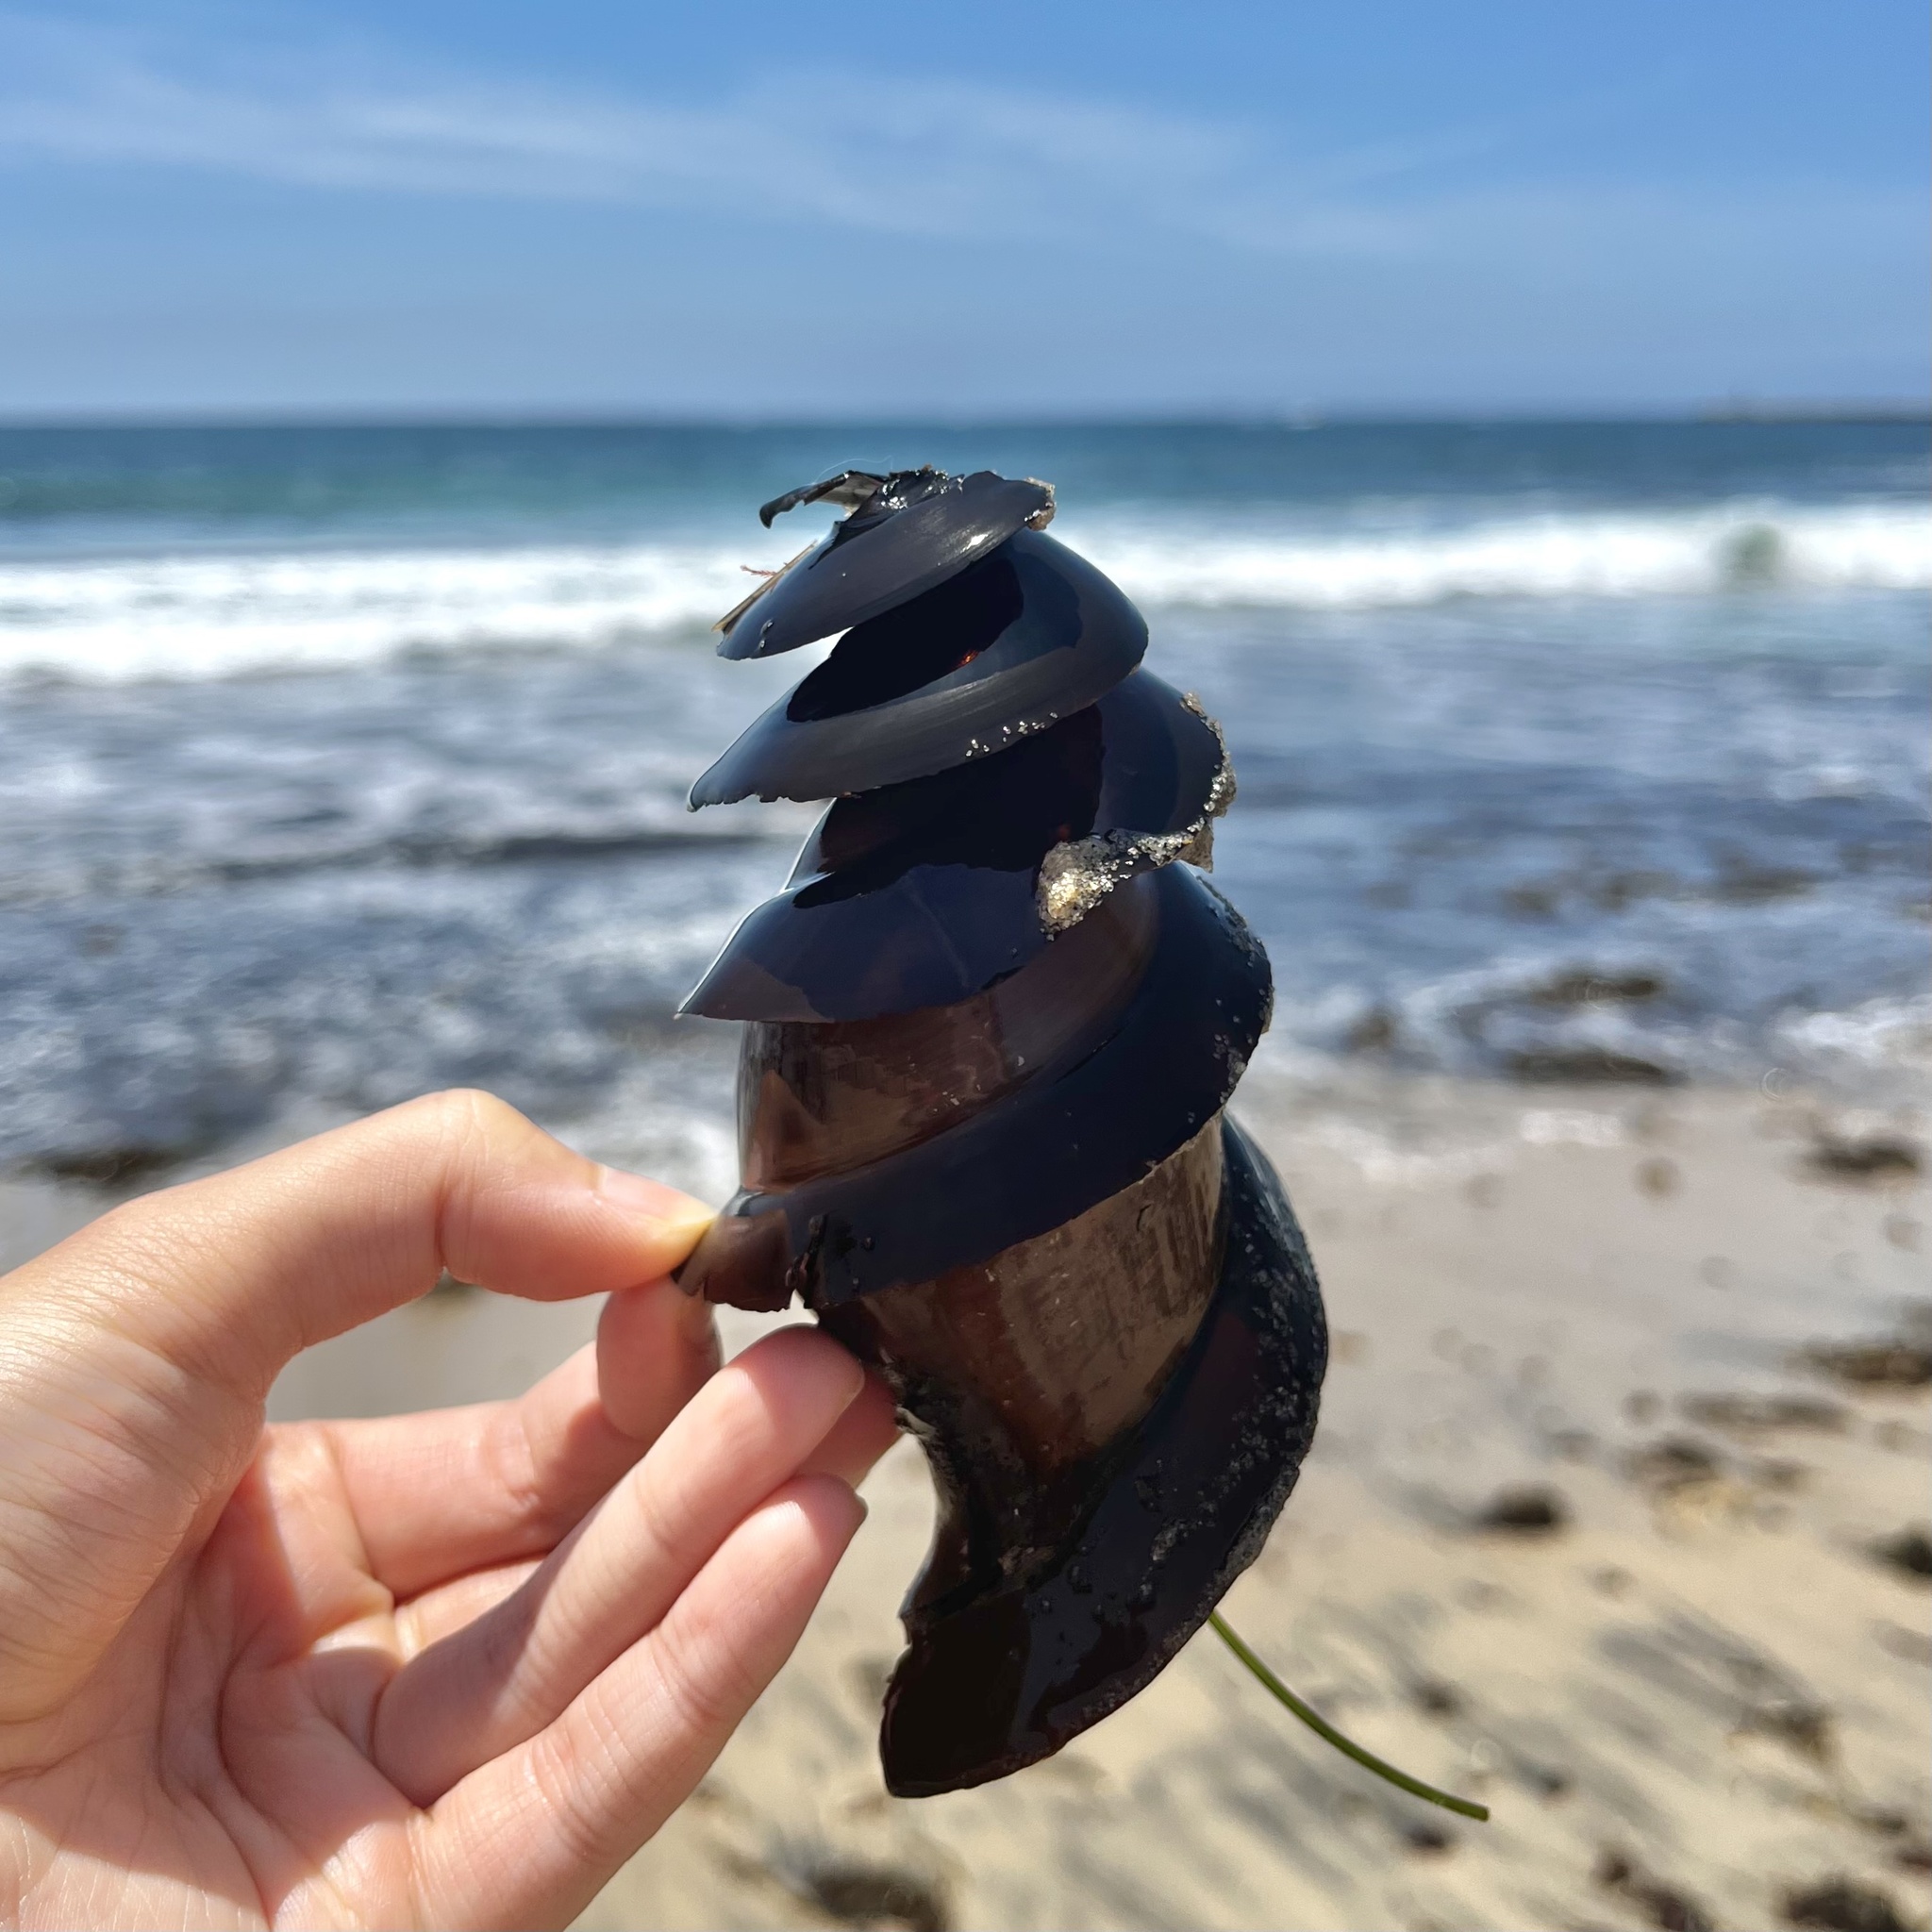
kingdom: Animalia
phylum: Chordata
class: Elasmobranchii
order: Heterodontiformes
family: Heterodontidae
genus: Heterodontus
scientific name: Heterodontus francisci
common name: Horn shark
